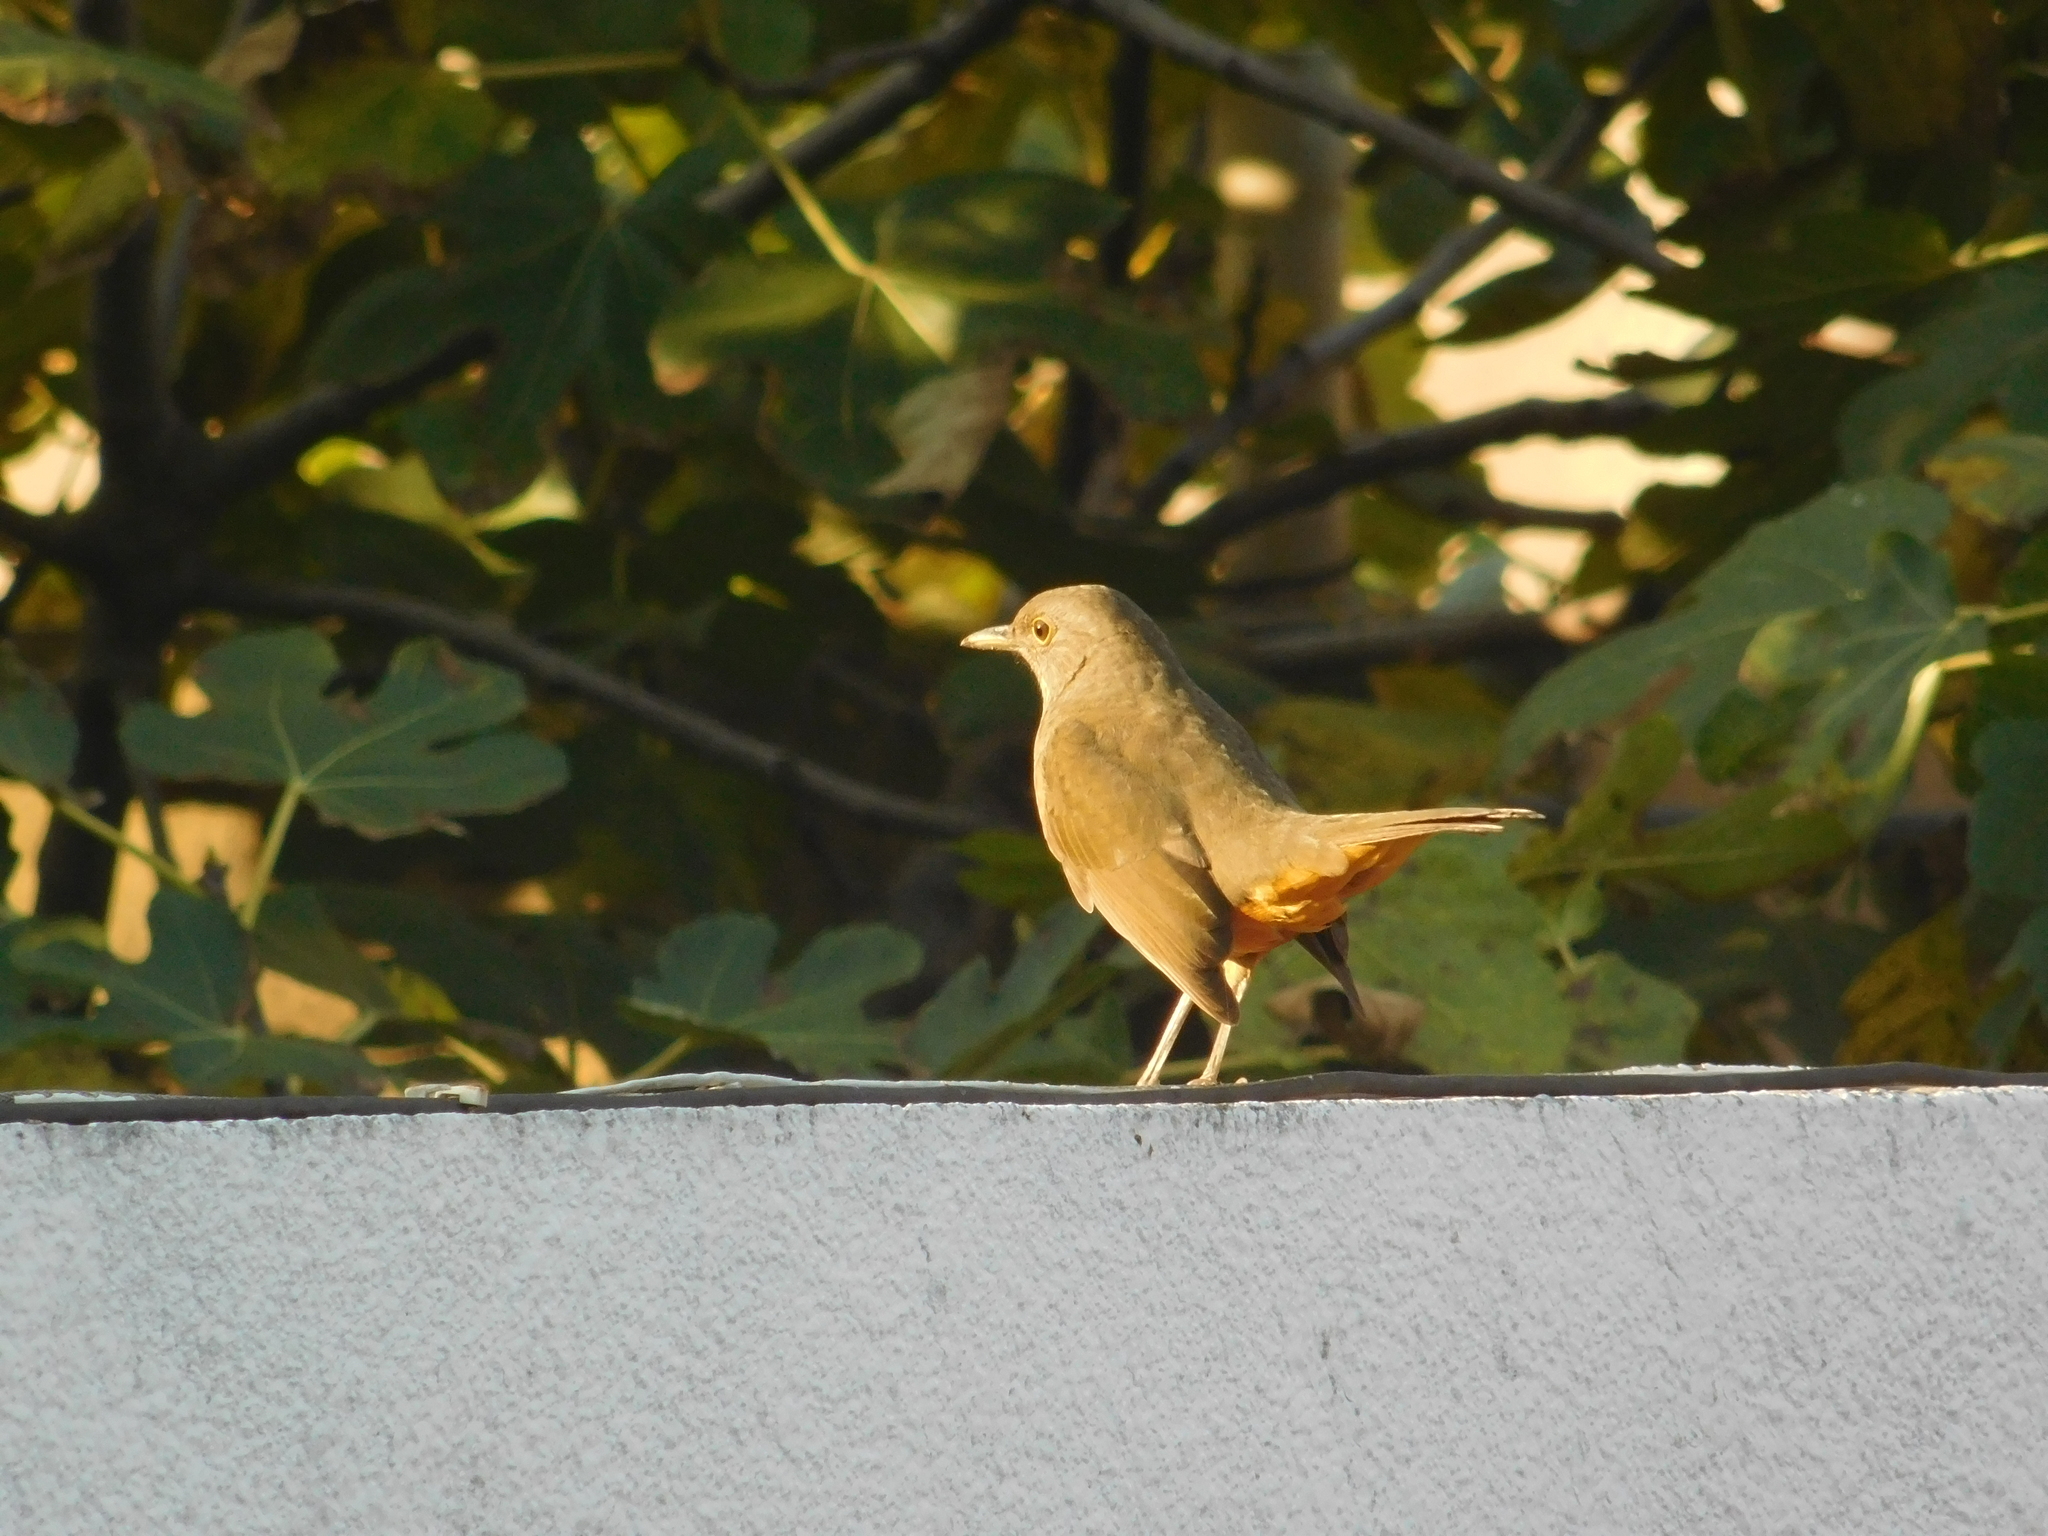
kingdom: Animalia
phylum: Chordata
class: Aves
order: Passeriformes
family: Turdidae
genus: Turdus
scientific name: Turdus rufiventris
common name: Rufous-bellied thrush
